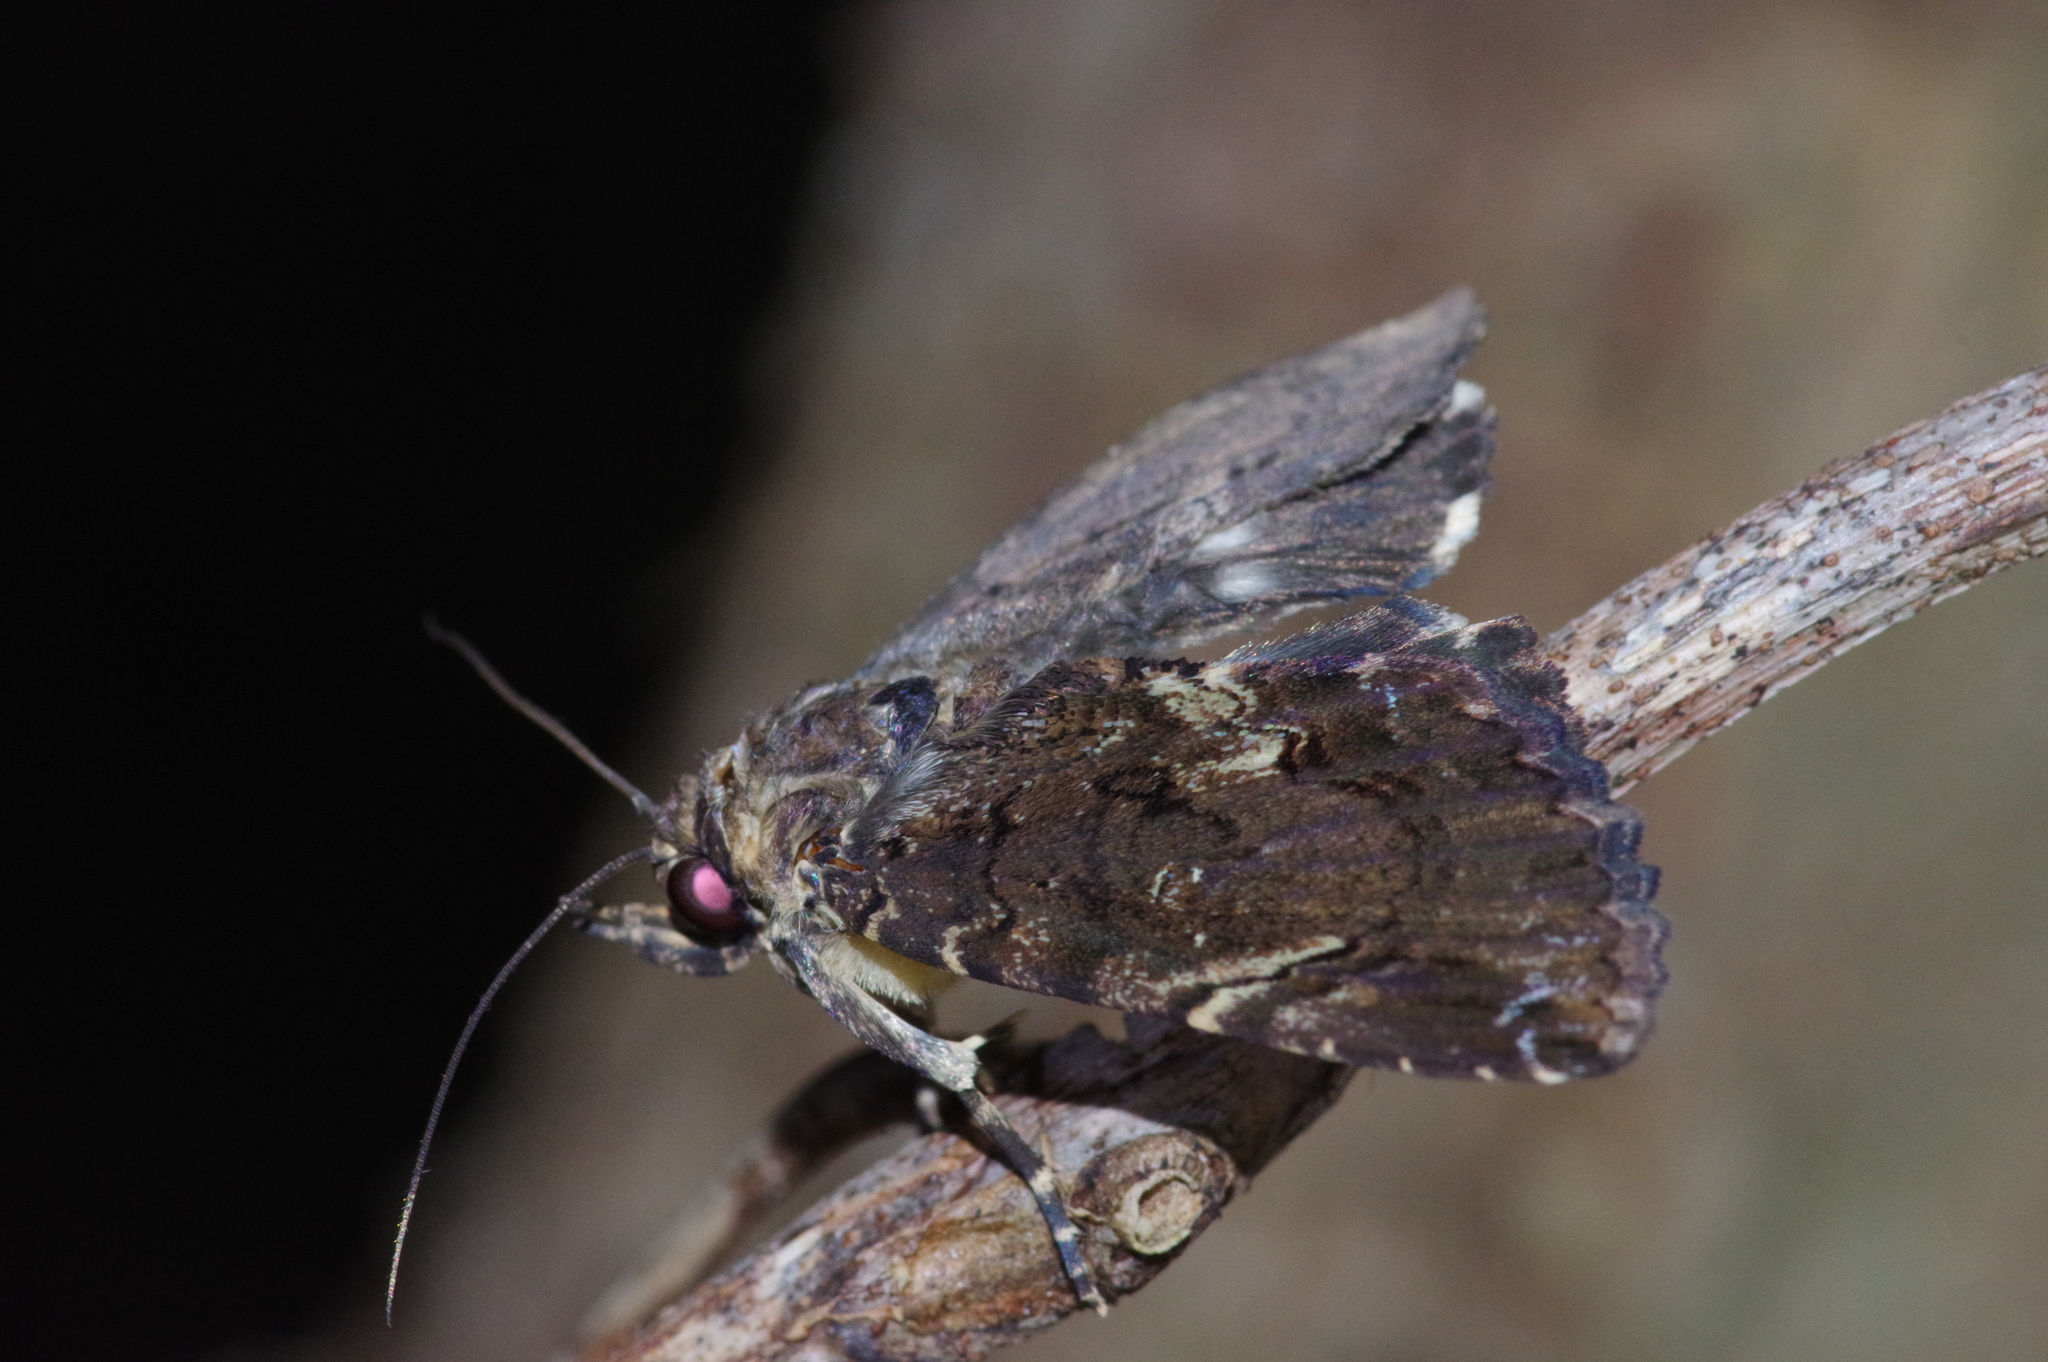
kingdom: Animalia
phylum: Arthropoda
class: Insecta
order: Lepidoptera
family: Erebidae
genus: Ercheia
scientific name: Ercheia dubia
